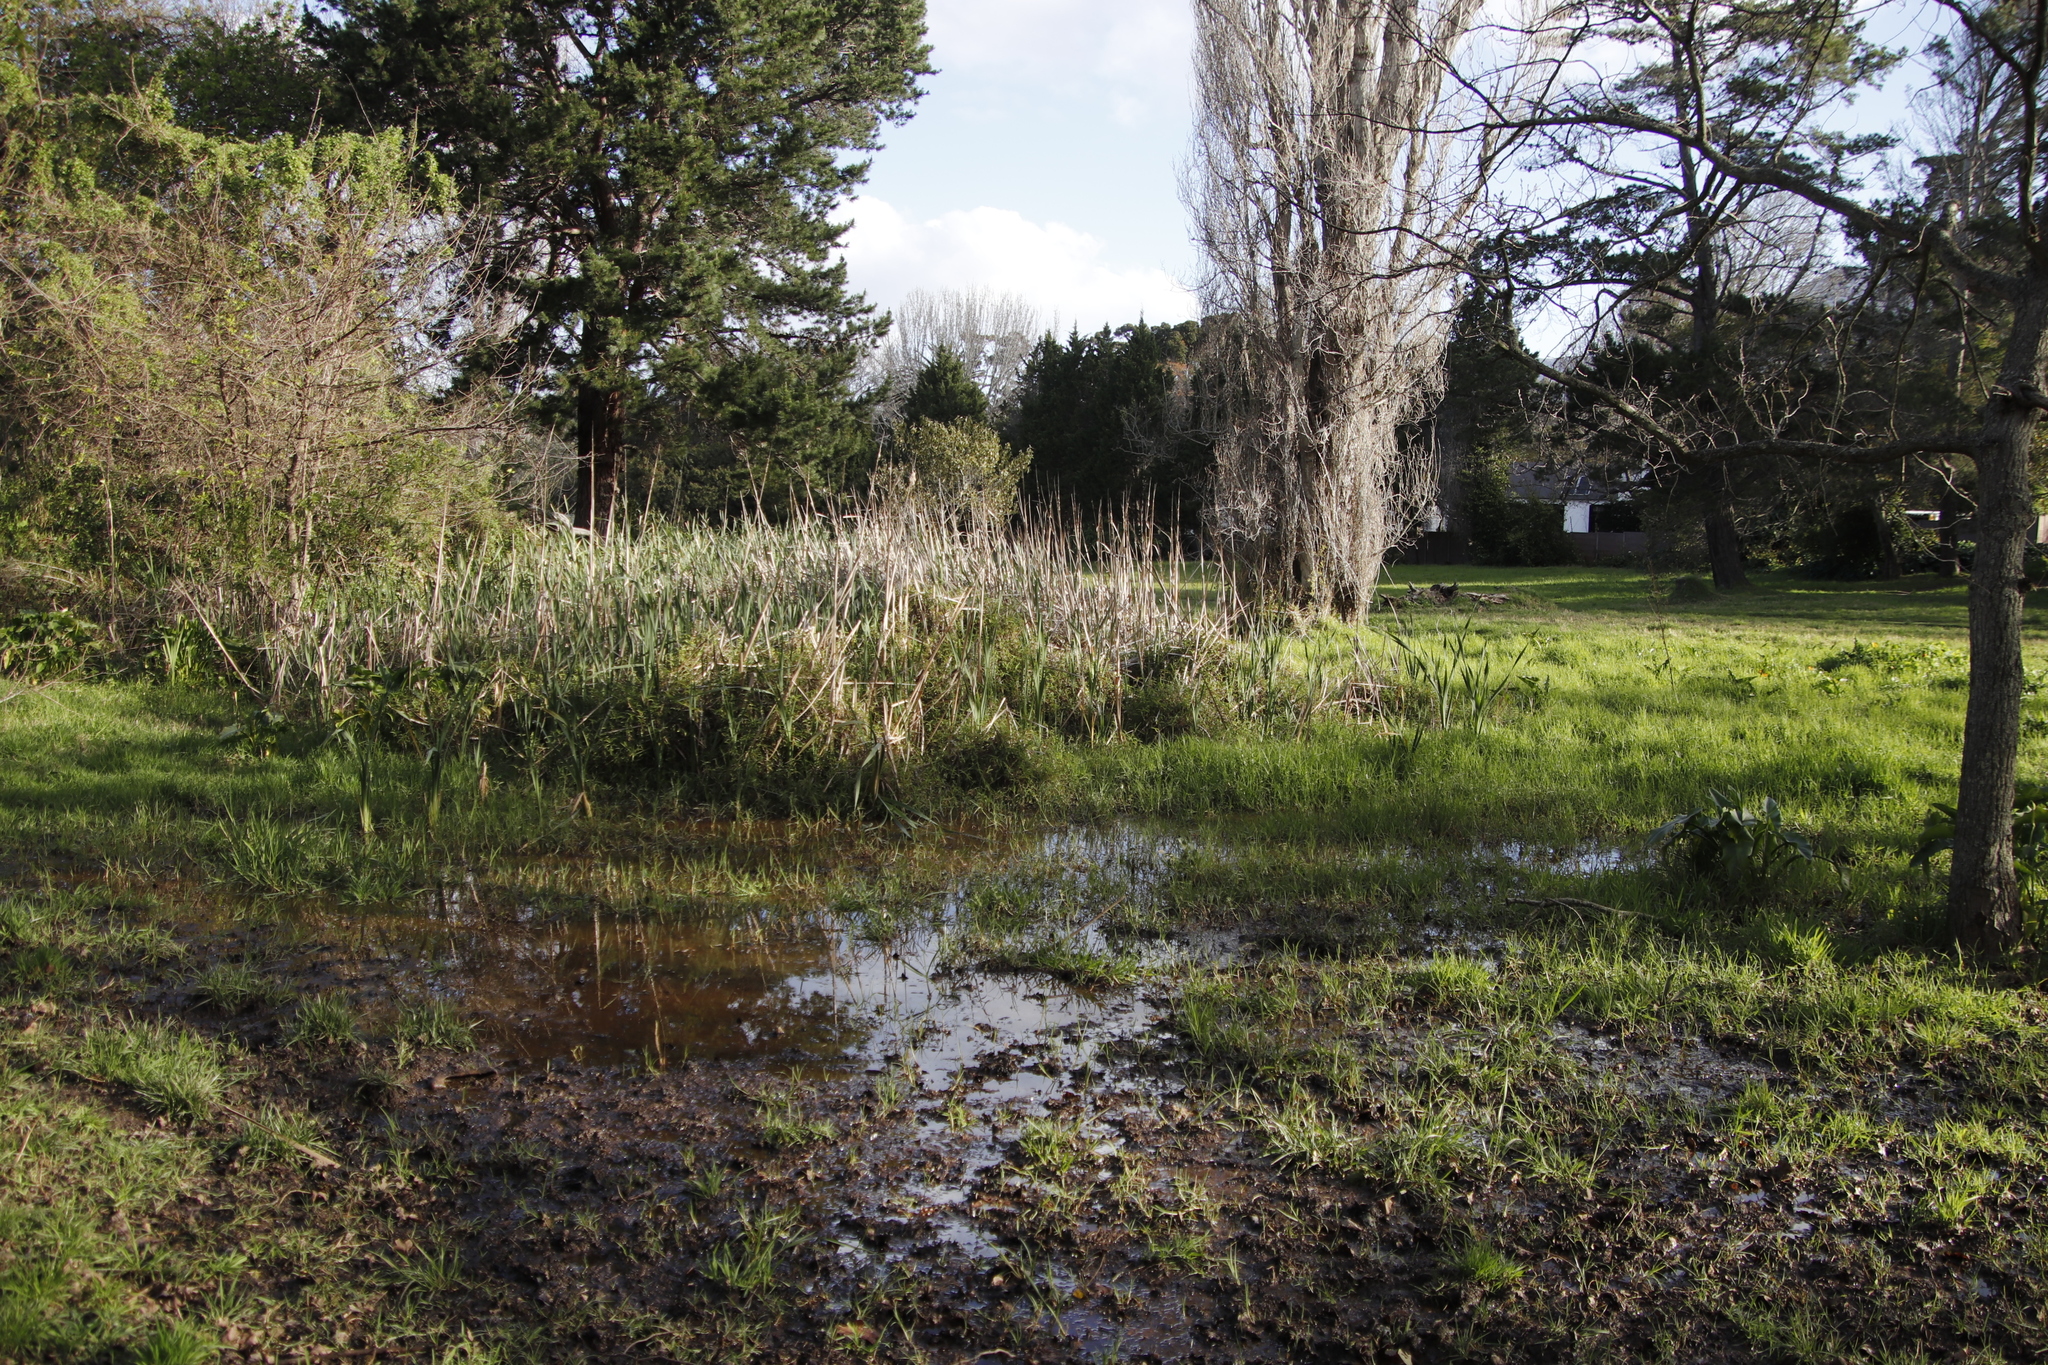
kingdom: Plantae
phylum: Tracheophyta
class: Liliopsida
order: Poales
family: Poaceae
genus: Phragmites
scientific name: Phragmites australis
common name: Common reed
